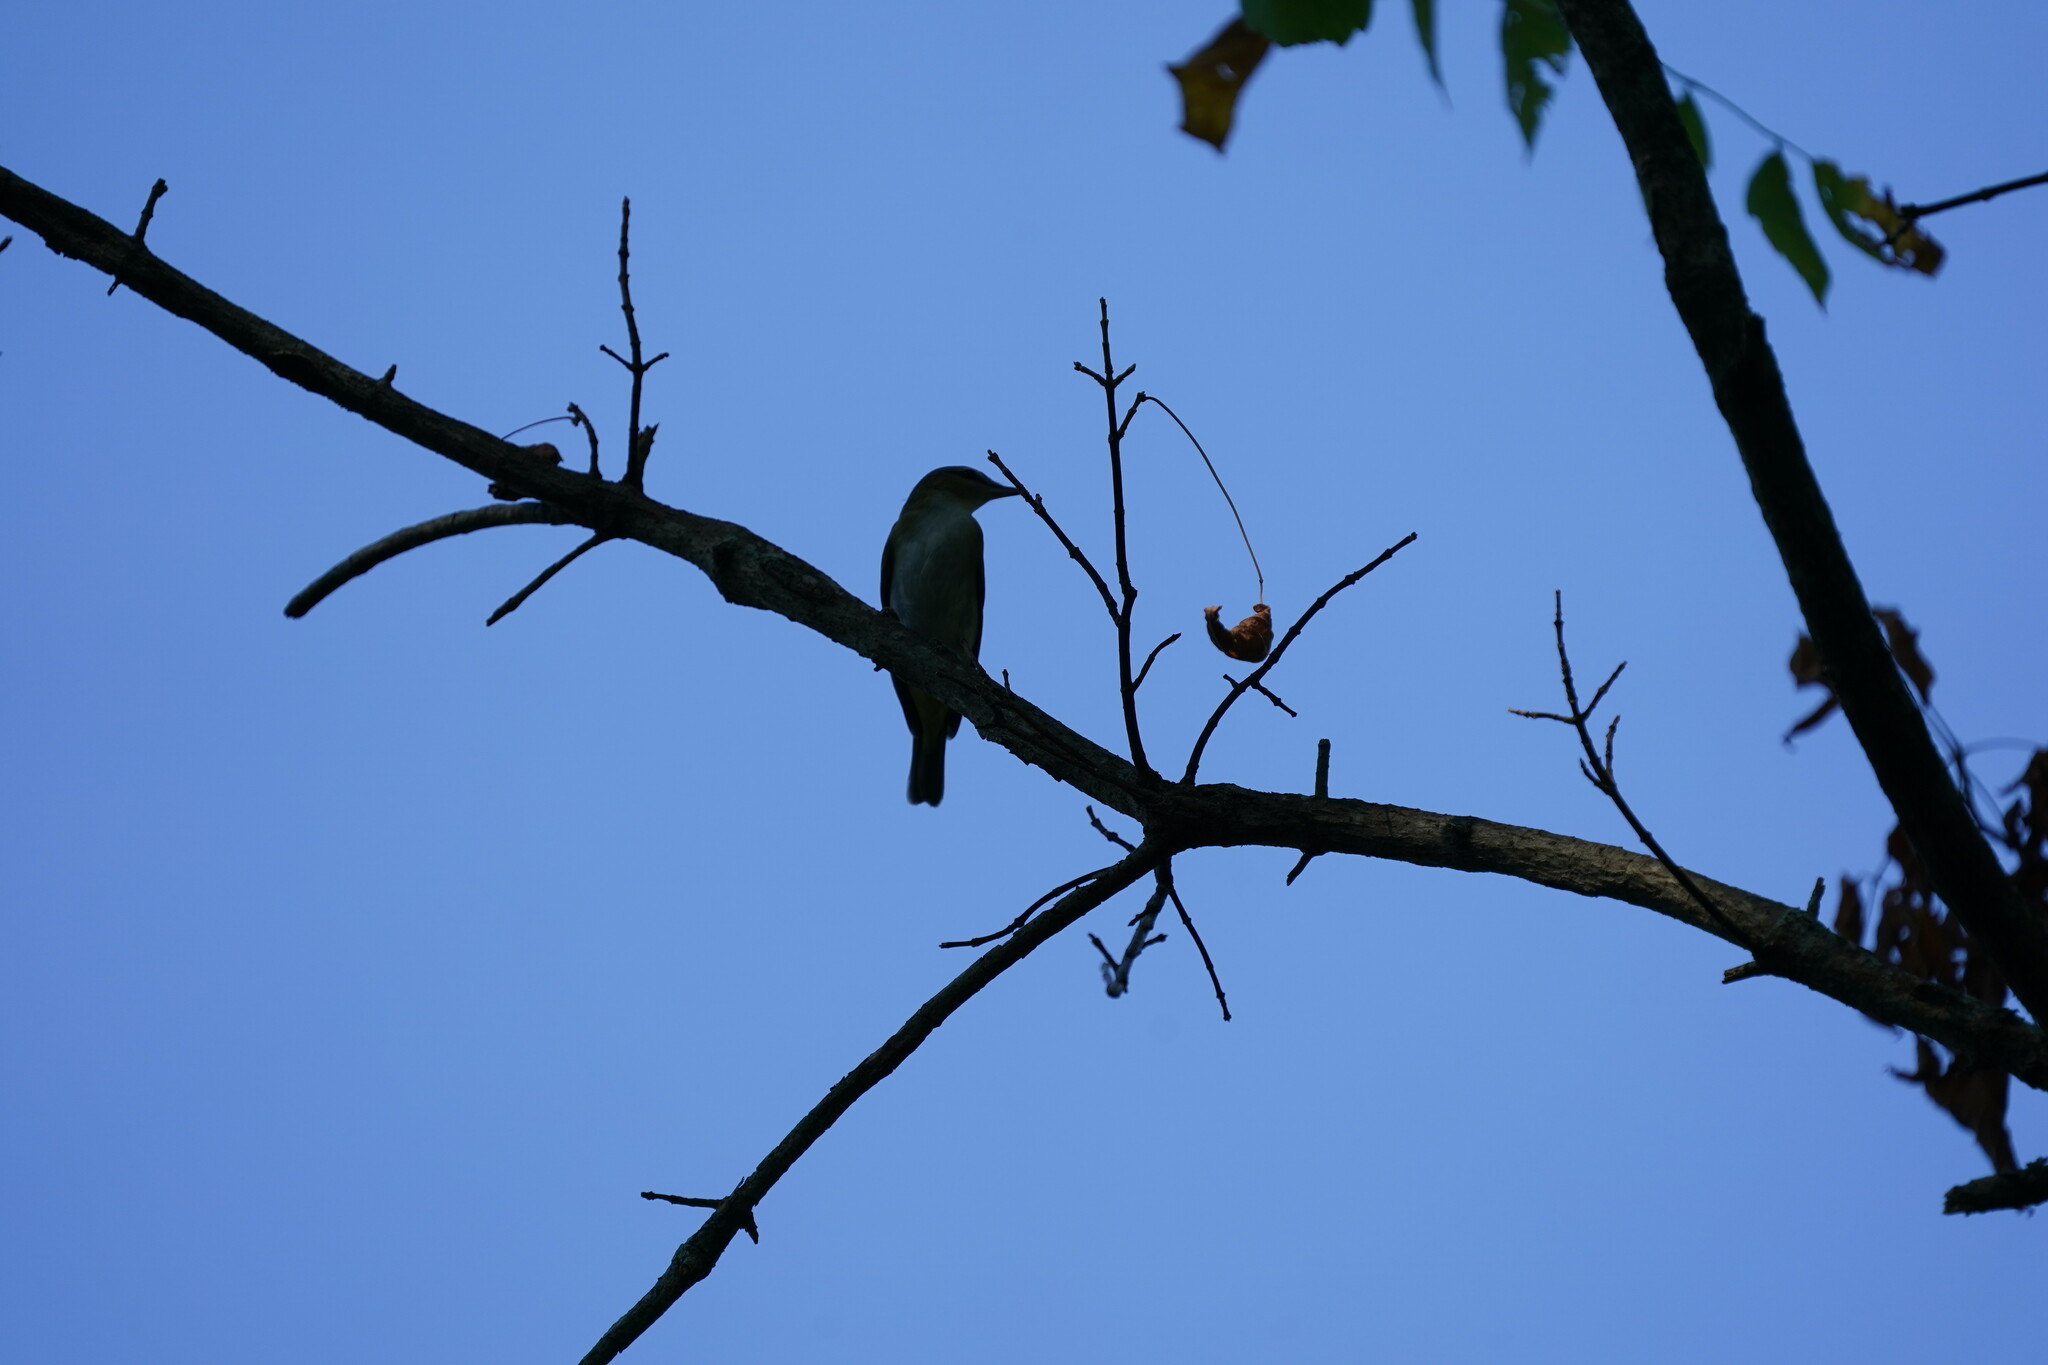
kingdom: Animalia
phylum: Chordata
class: Aves
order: Passeriformes
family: Vireonidae
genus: Vireo
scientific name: Vireo olivaceus
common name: Red-eyed vireo
